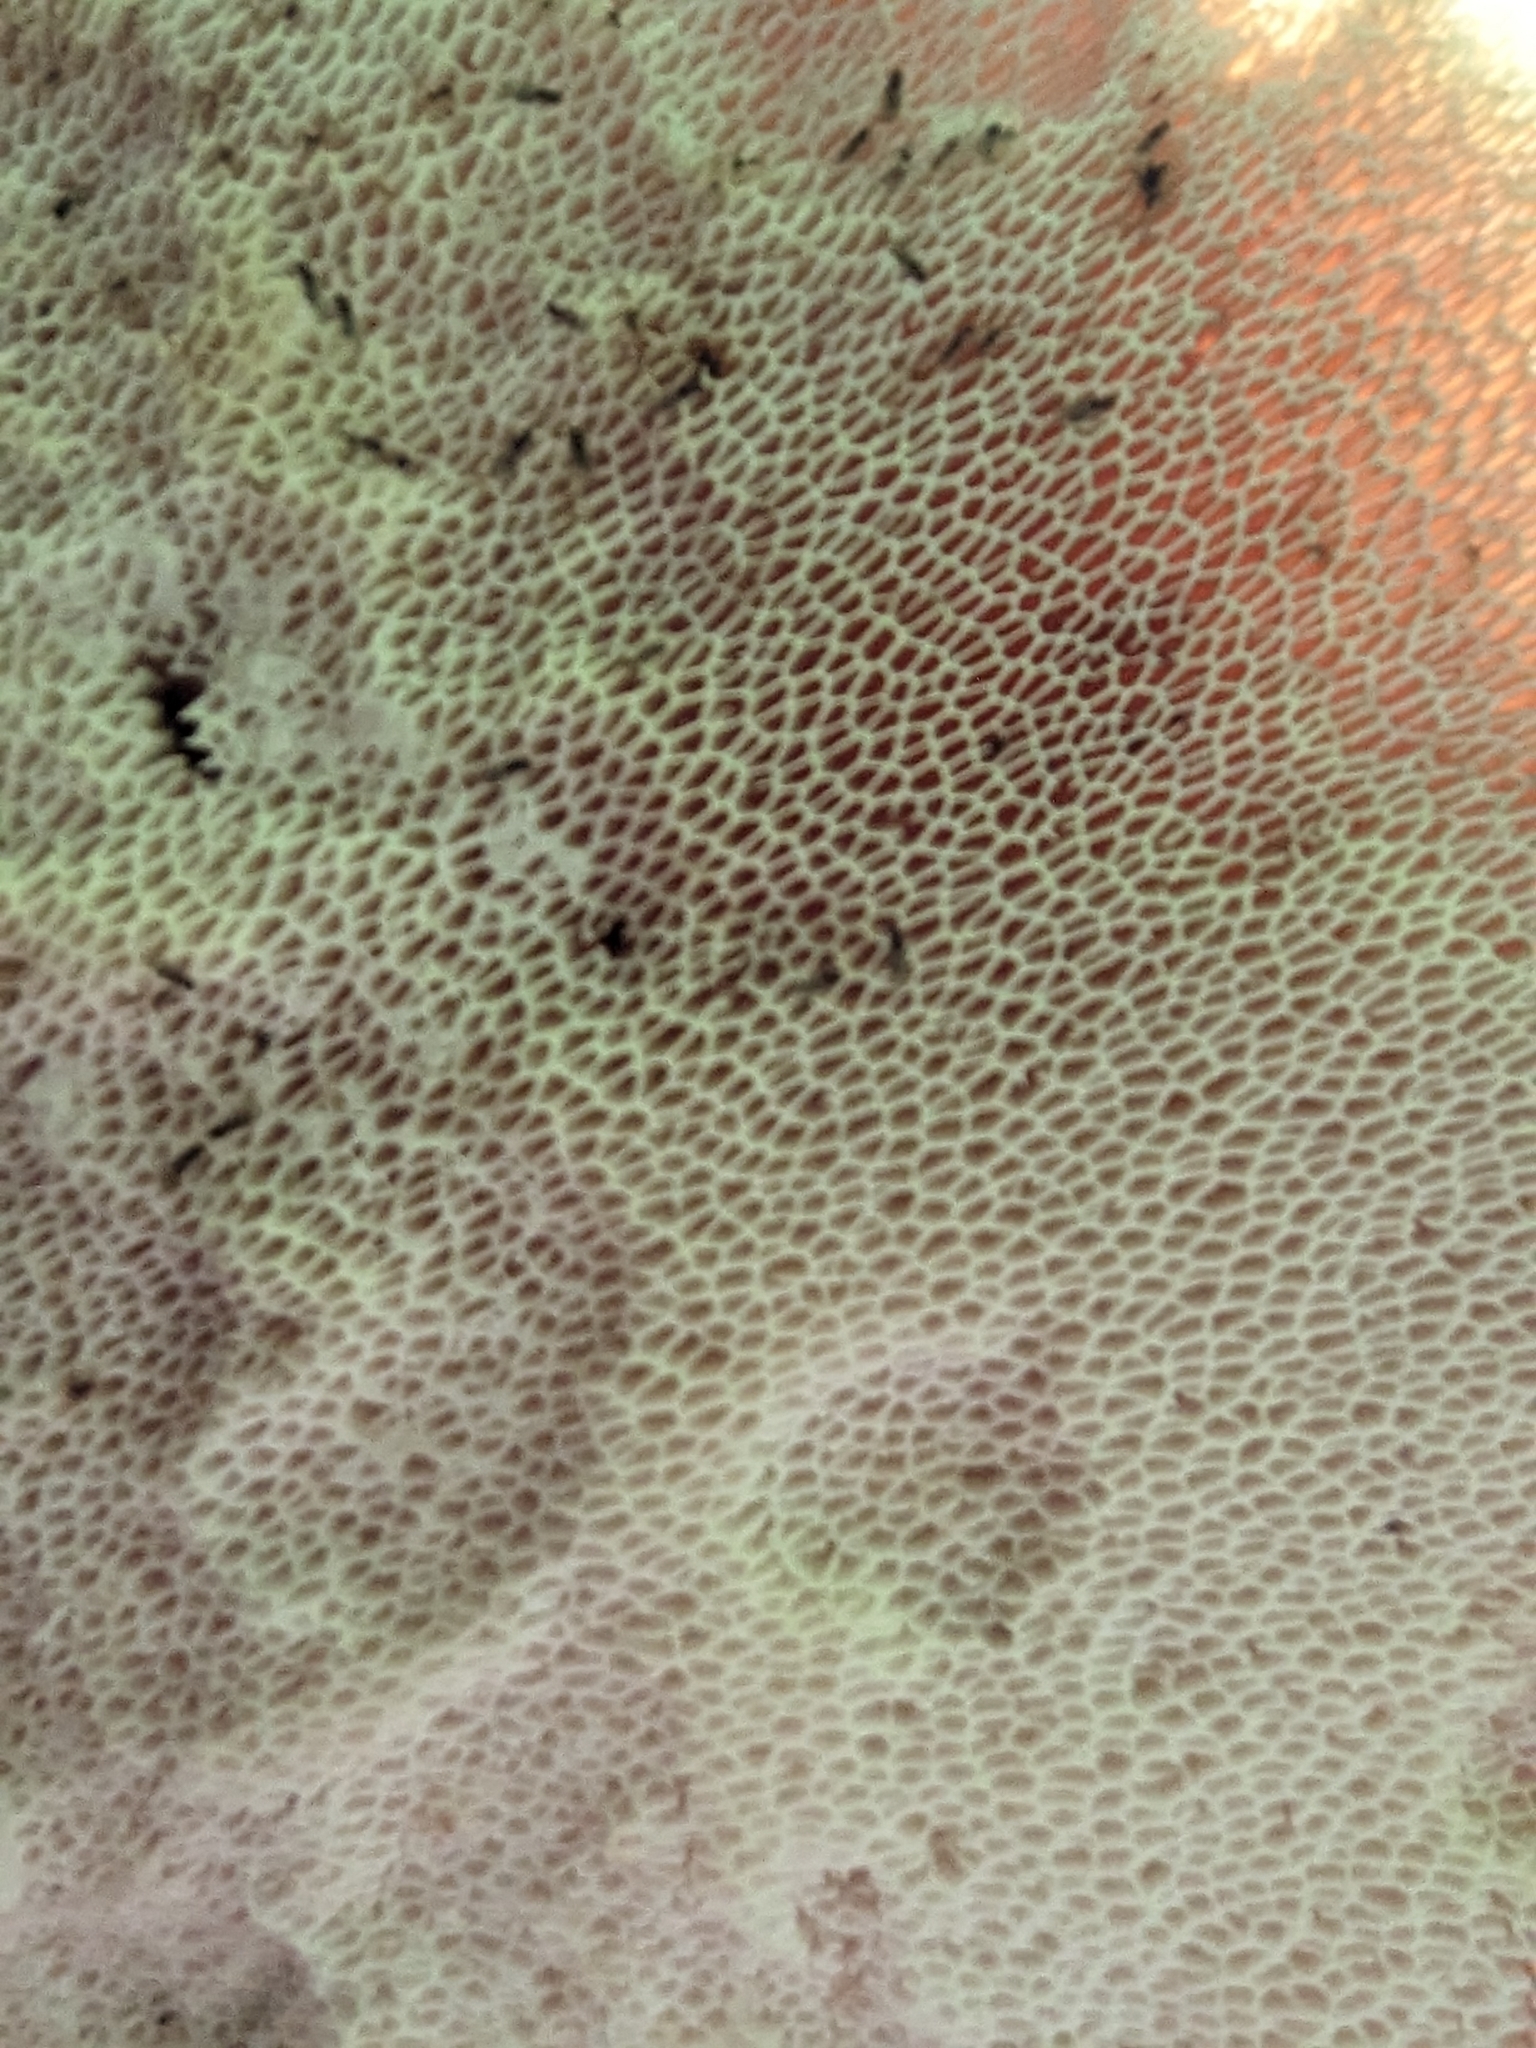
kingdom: Fungi
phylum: Basidiomycota
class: Agaricomycetes
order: Polyporales
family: Polyporaceae
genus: Cerioporus
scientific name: Cerioporus squamosus
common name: Dryad's saddle
